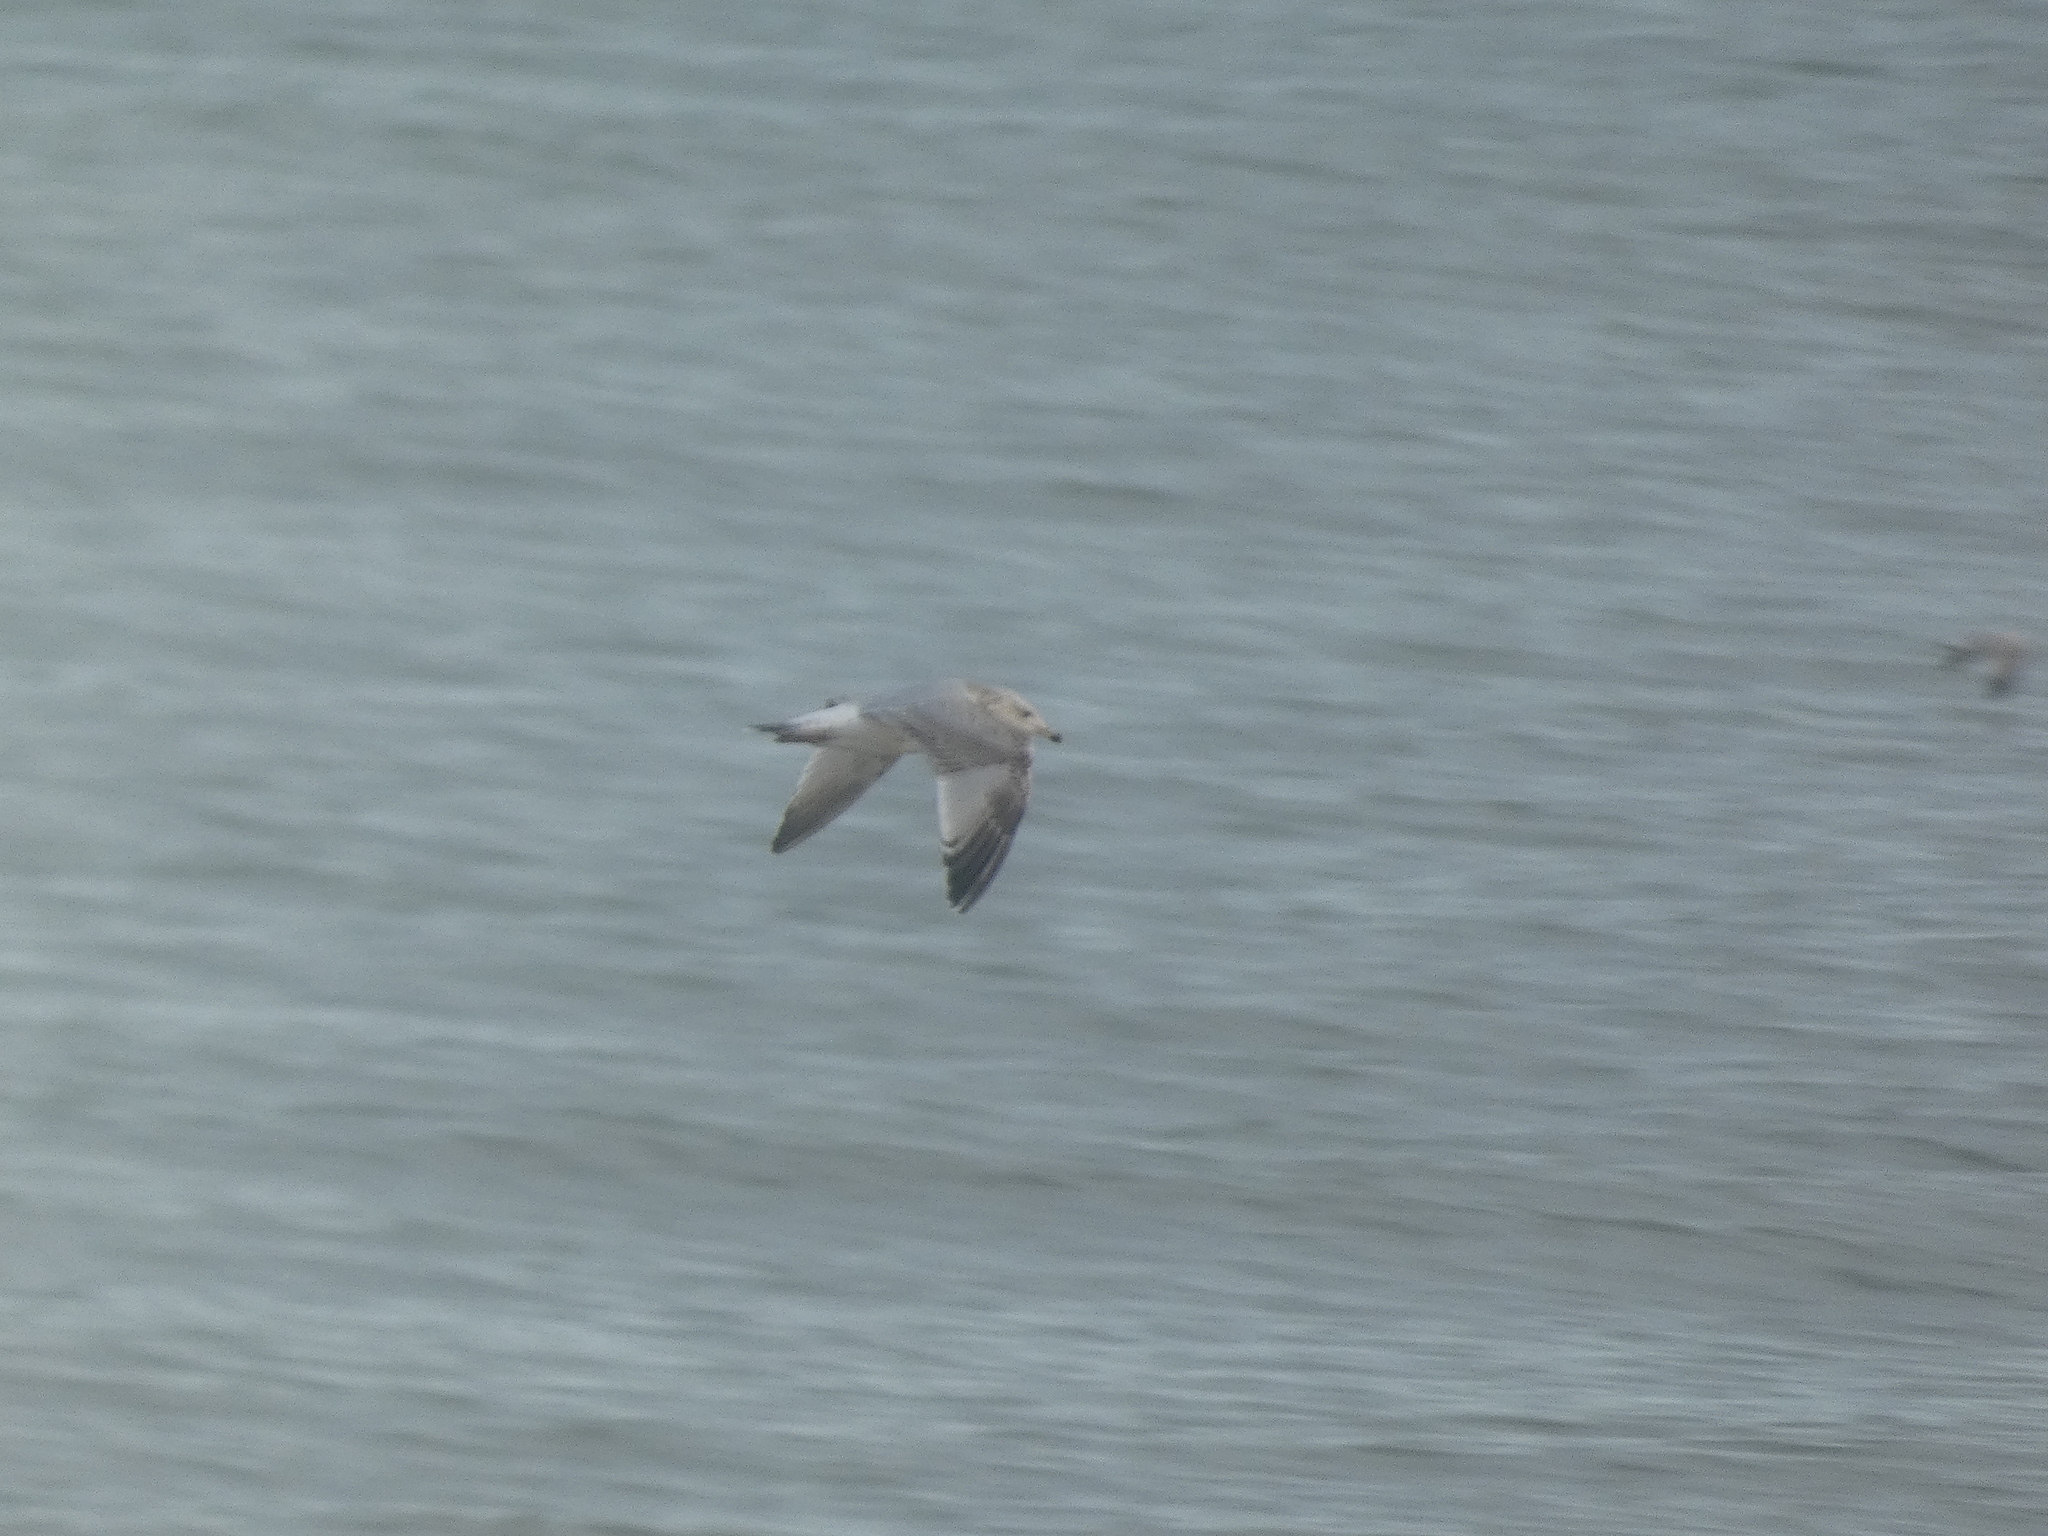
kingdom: Animalia
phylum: Chordata
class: Aves
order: Charadriiformes
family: Laridae
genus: Larus
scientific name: Larus argentatus
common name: Herring gull
